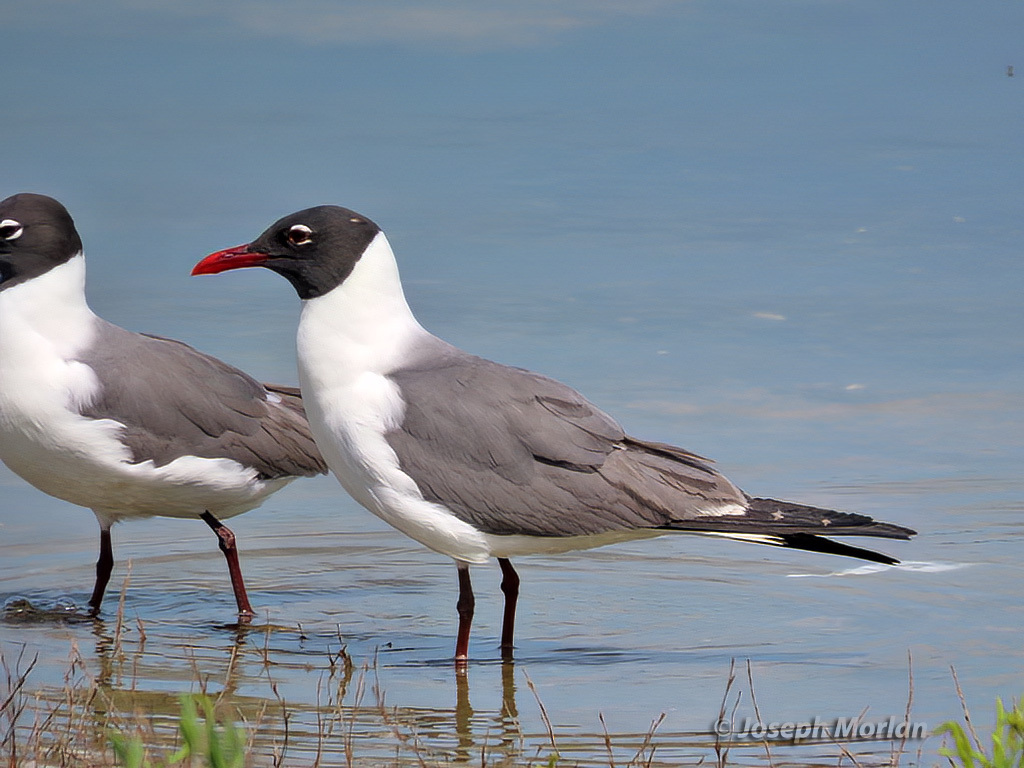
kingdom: Animalia
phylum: Chordata
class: Aves
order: Charadriiformes
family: Laridae
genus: Leucophaeus
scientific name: Leucophaeus atricilla
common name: Laughing gull
